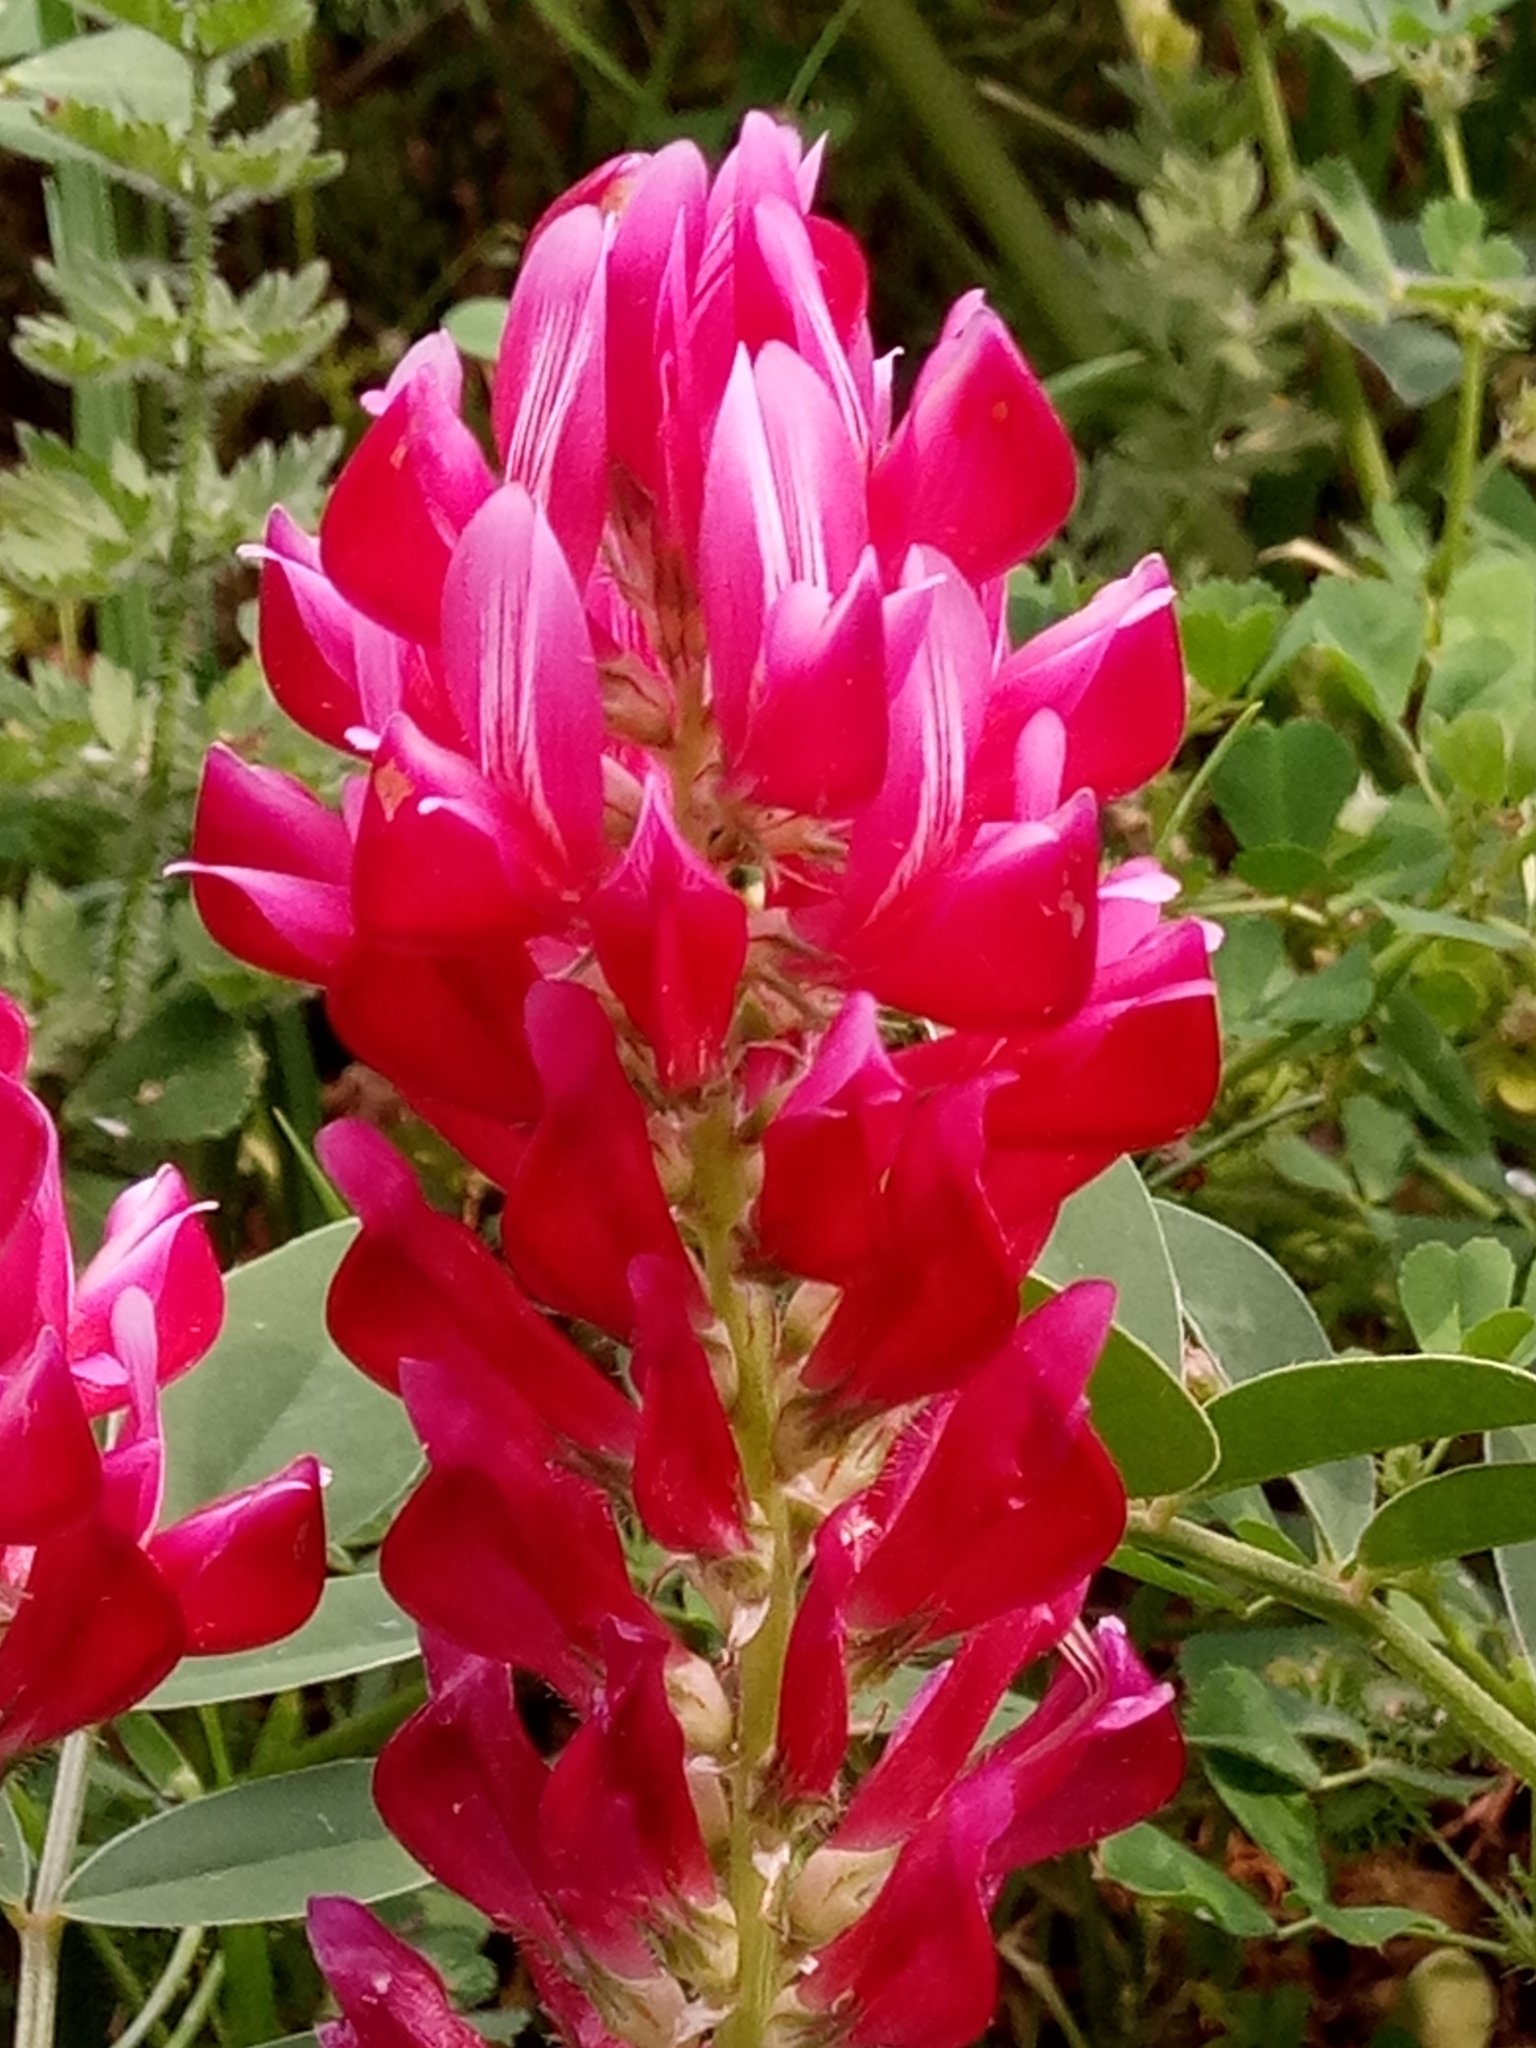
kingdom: Plantae
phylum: Tracheophyta
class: Magnoliopsida
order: Fabales
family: Fabaceae
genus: Sulla
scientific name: Sulla coronaria
